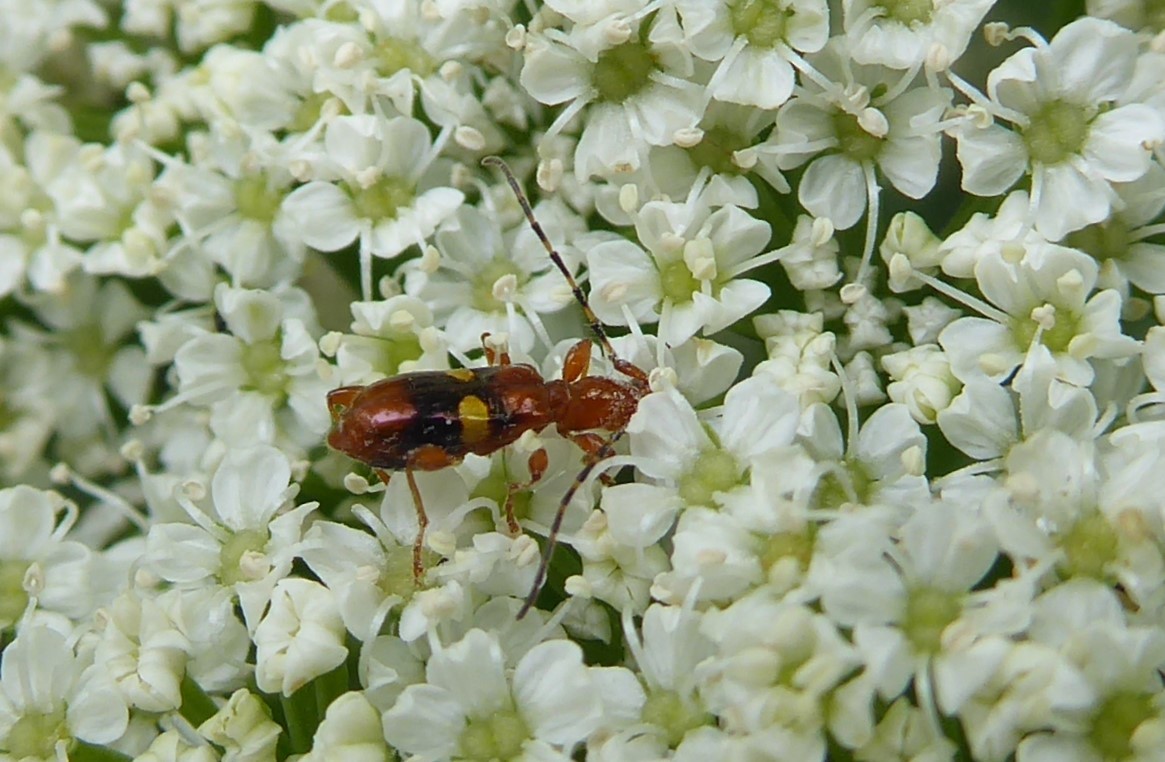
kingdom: Animalia
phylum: Arthropoda
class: Insecta
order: Coleoptera
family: Cerambycidae
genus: Zorion
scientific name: Zorion australe
